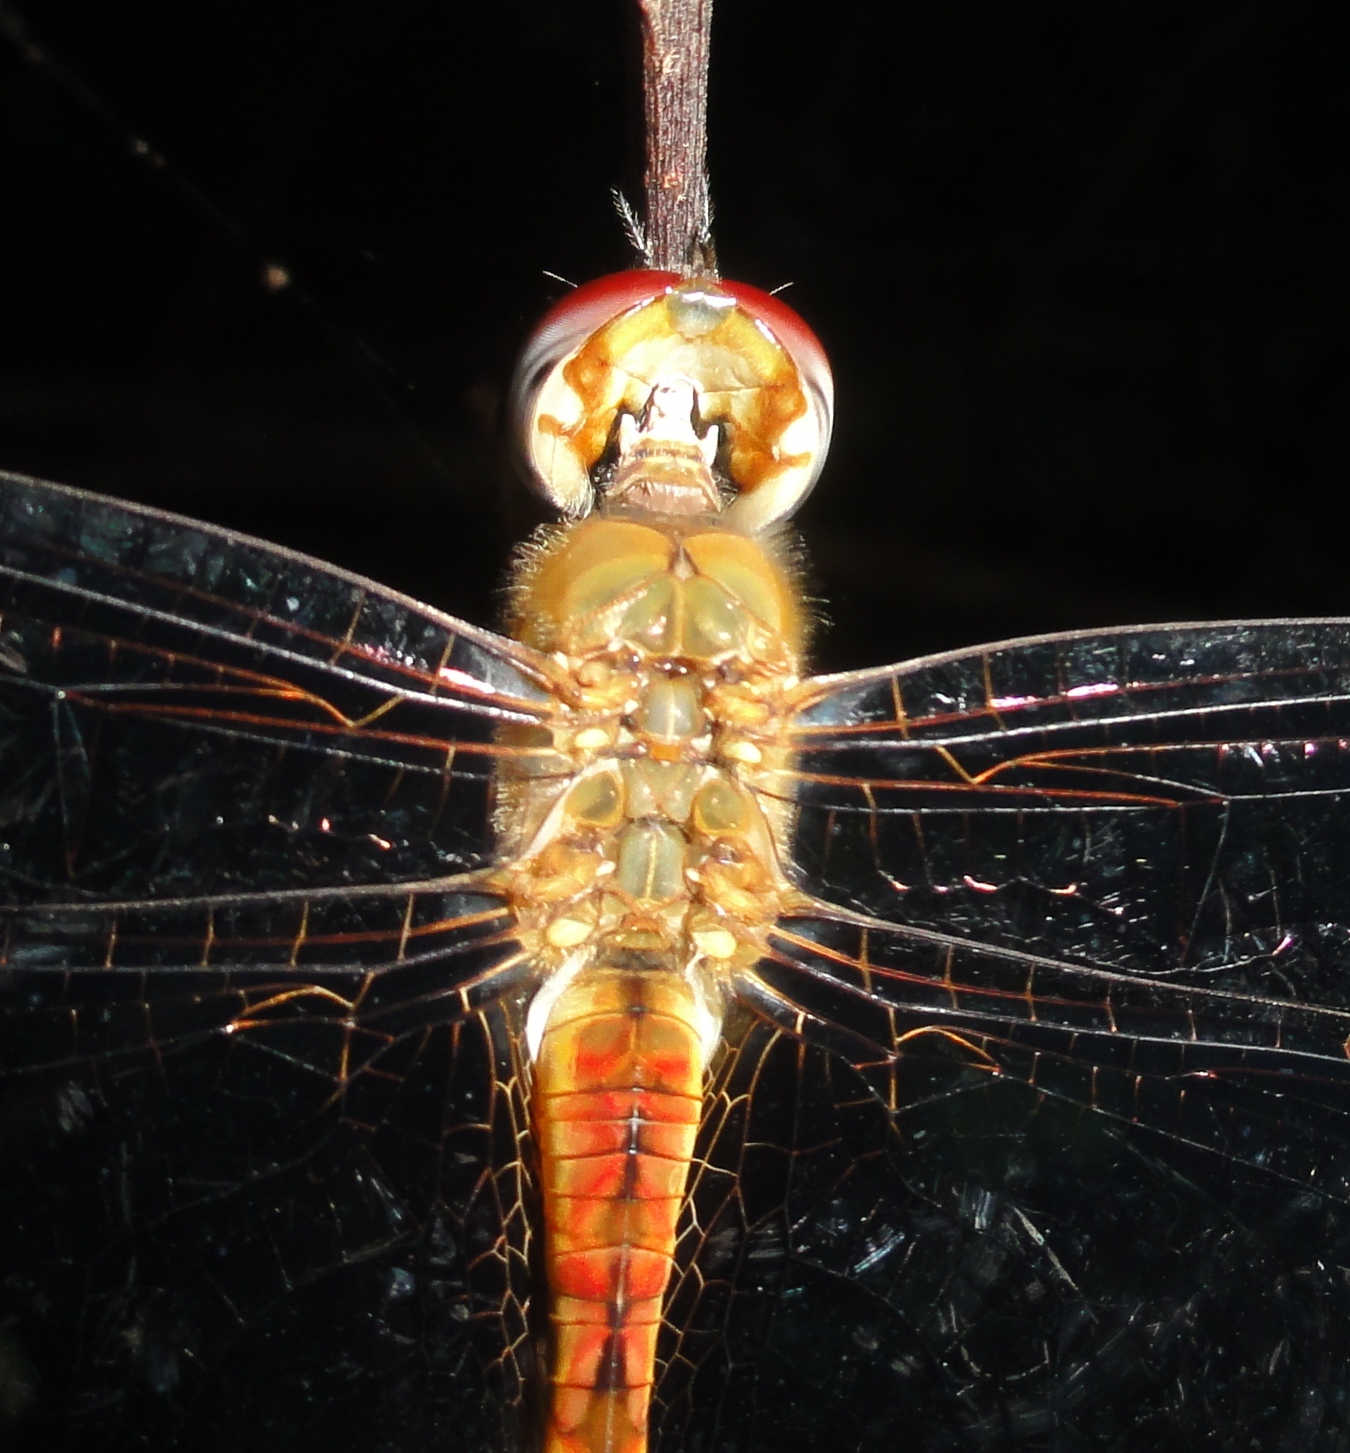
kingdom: Animalia
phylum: Arthropoda
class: Insecta
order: Odonata
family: Libellulidae
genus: Pantala
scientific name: Pantala flavescens
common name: Wandering glider
